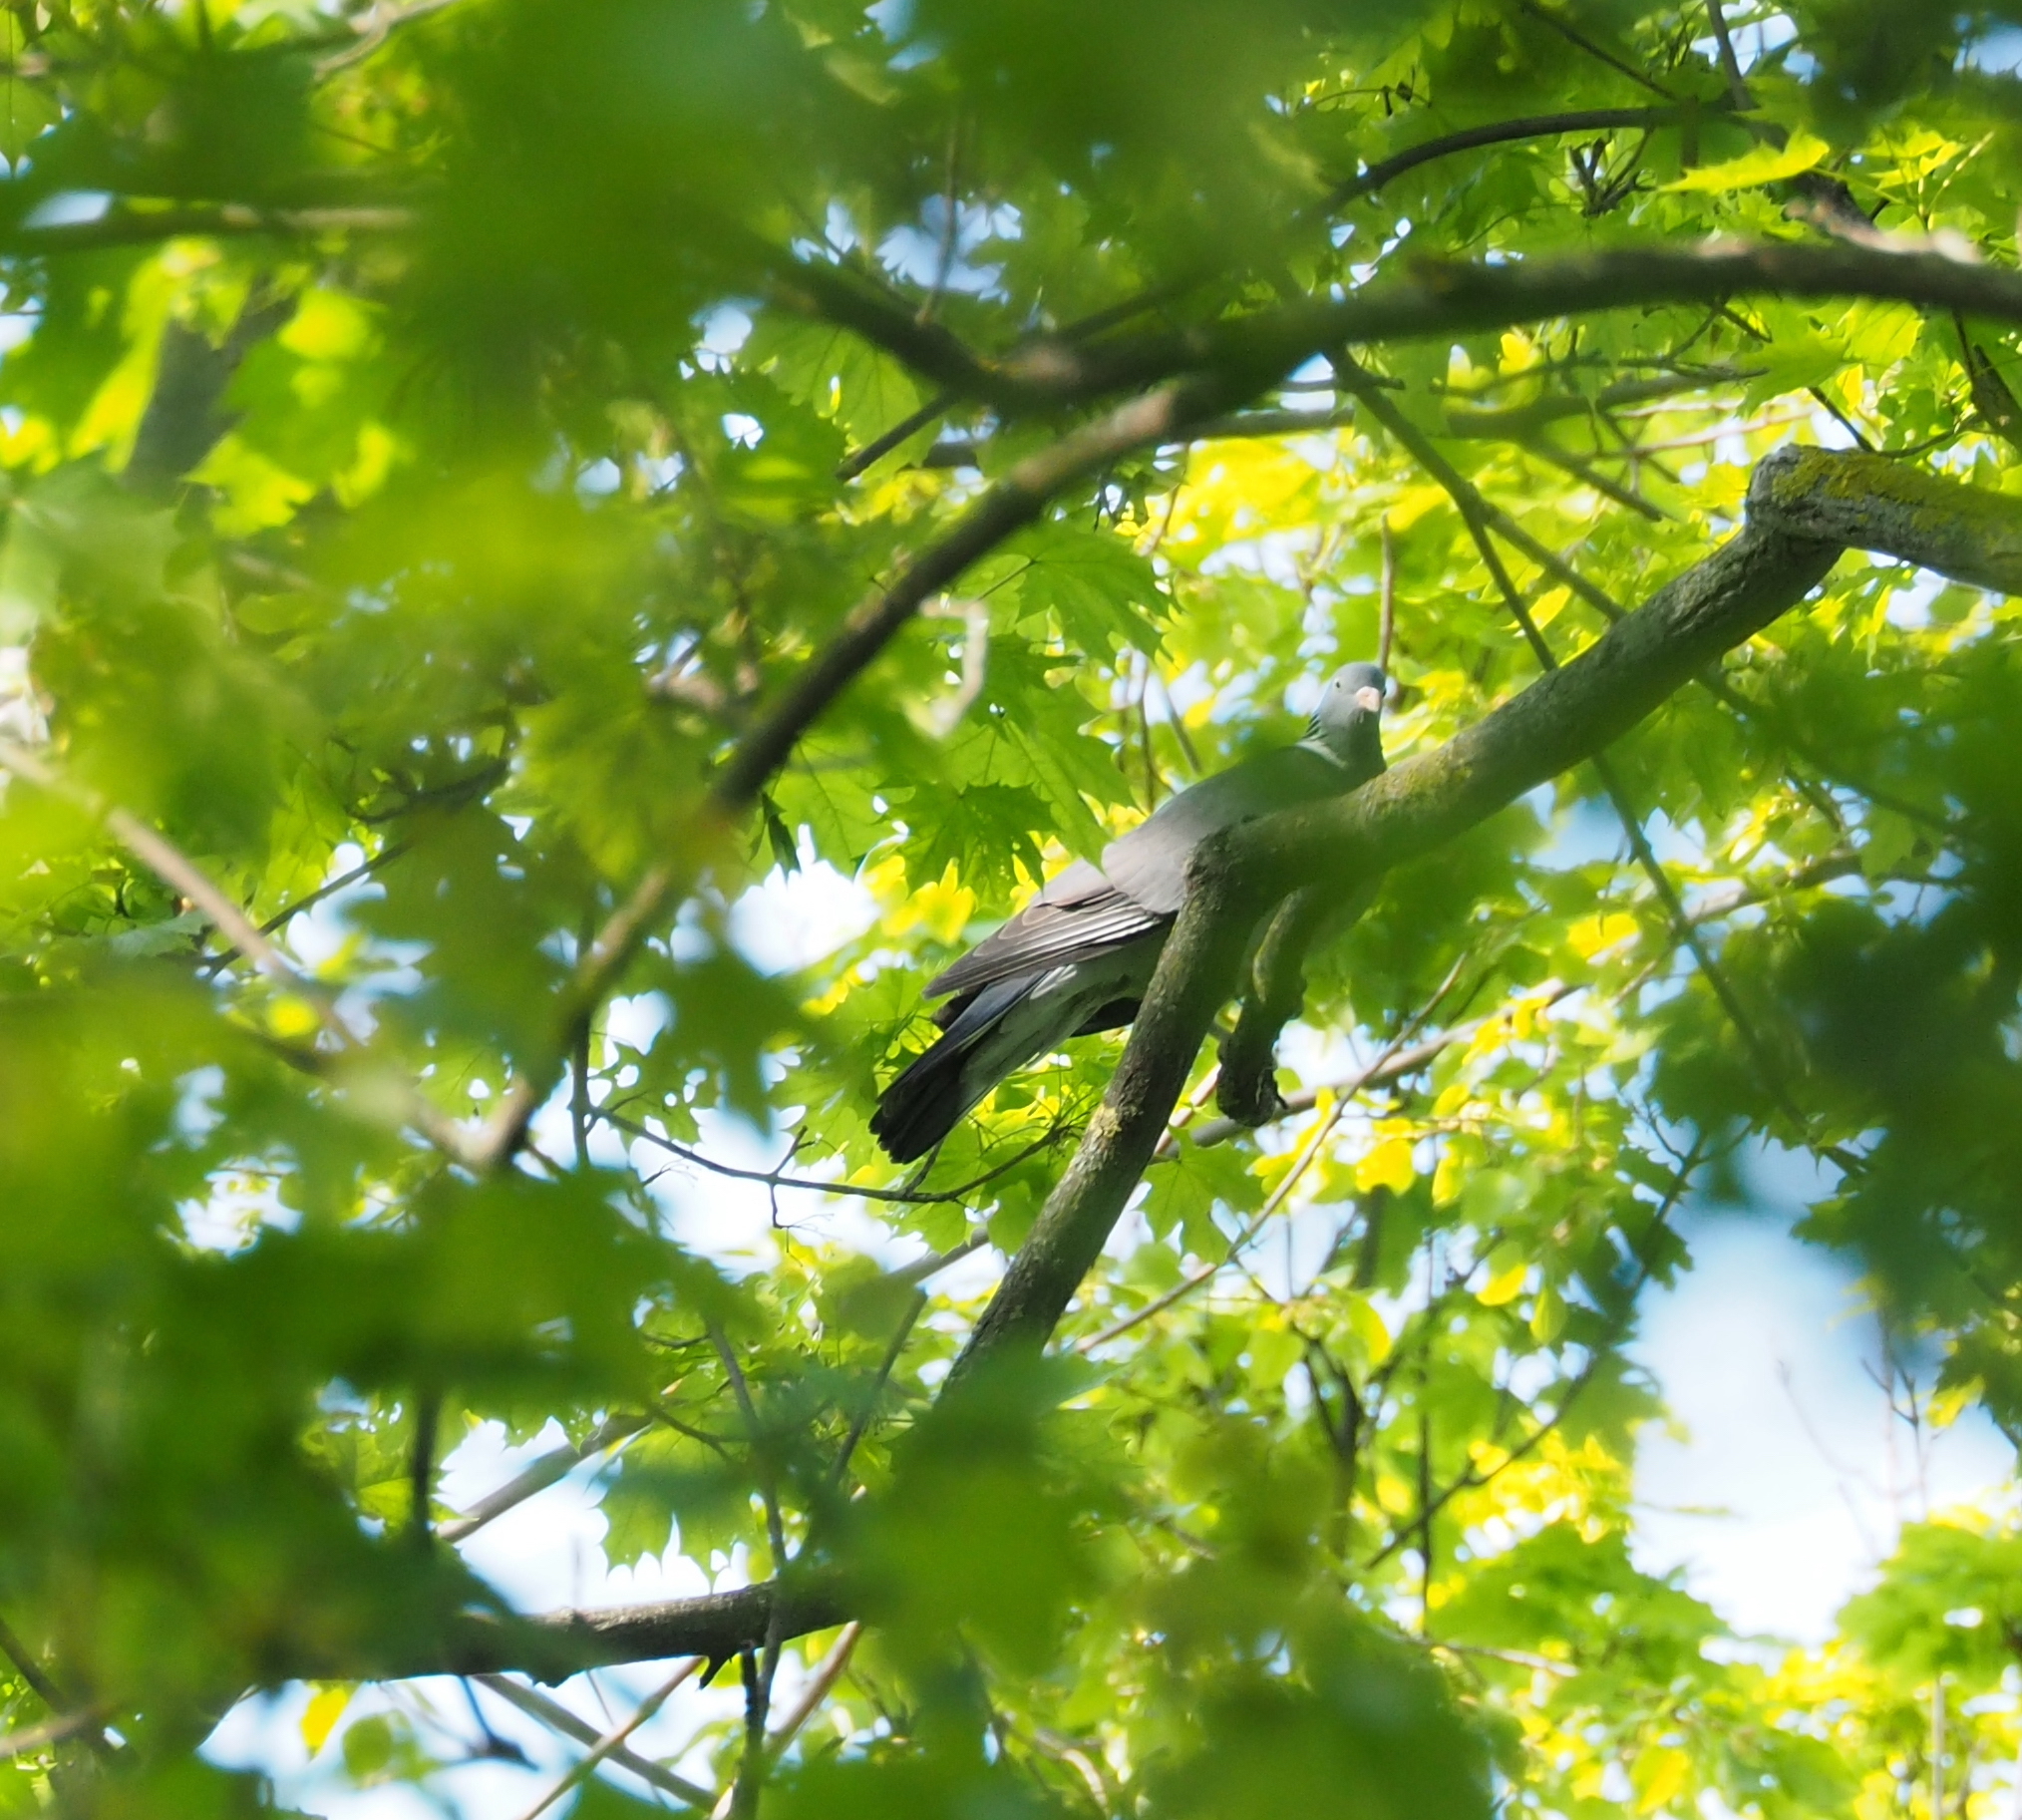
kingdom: Animalia
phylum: Chordata
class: Aves
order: Columbiformes
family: Columbidae
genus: Columba
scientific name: Columba palumbus
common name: Common wood pigeon
